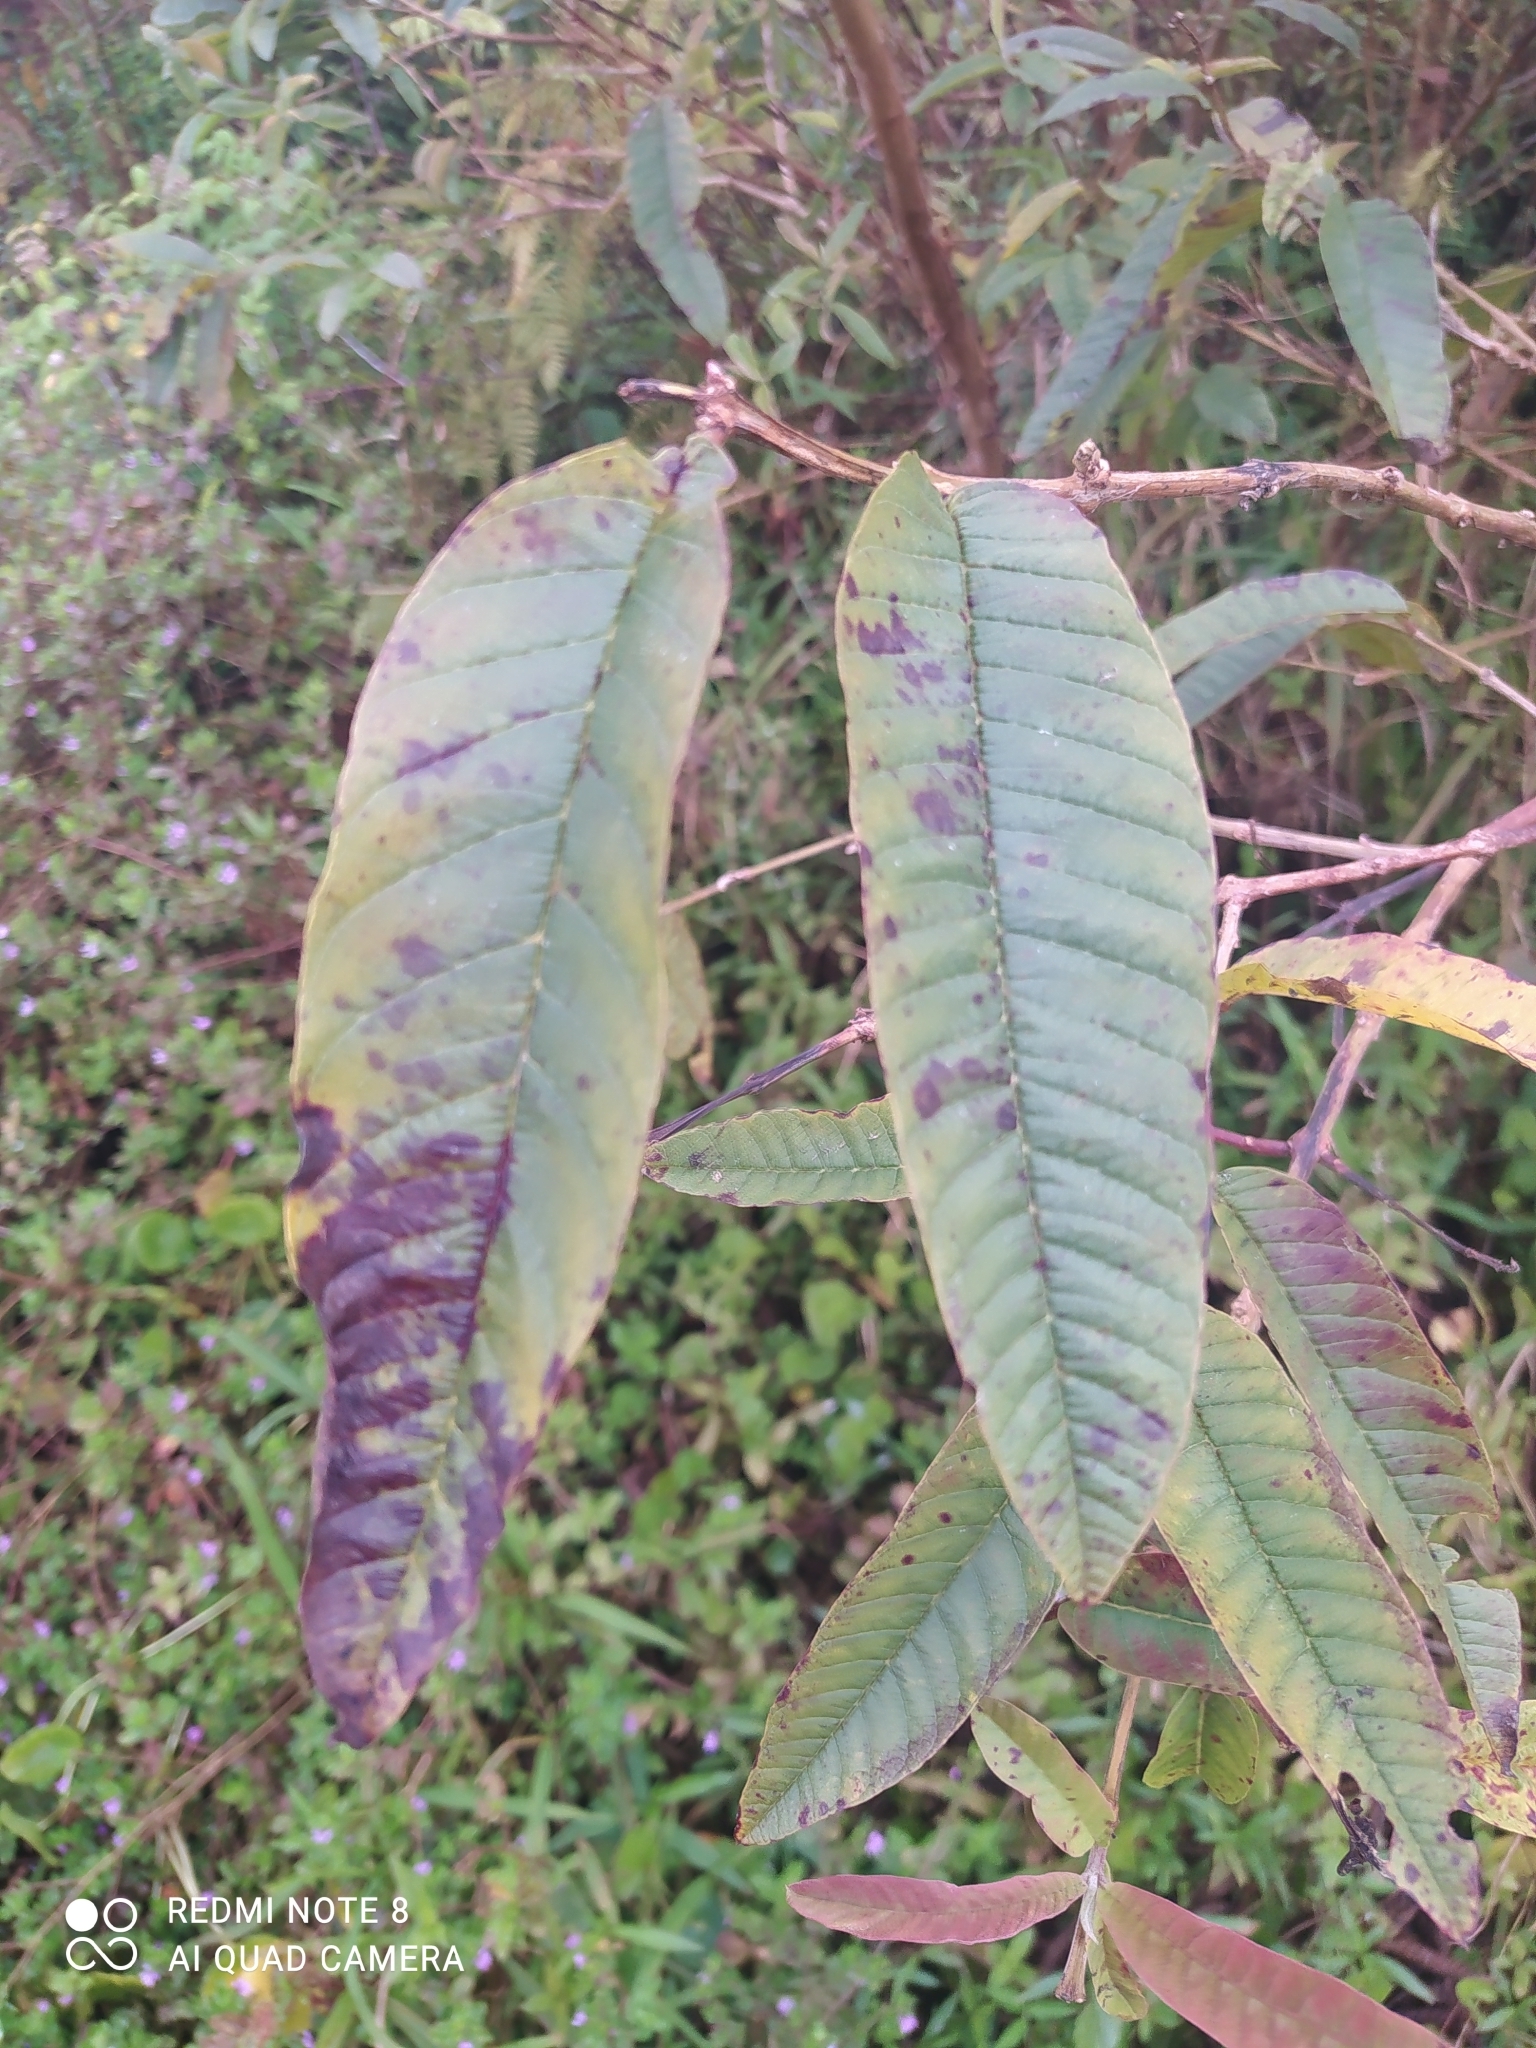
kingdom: Plantae
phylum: Tracheophyta
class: Magnoliopsida
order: Myrtales
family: Myrtaceae
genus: Psidium
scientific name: Psidium guajava
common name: Guava
